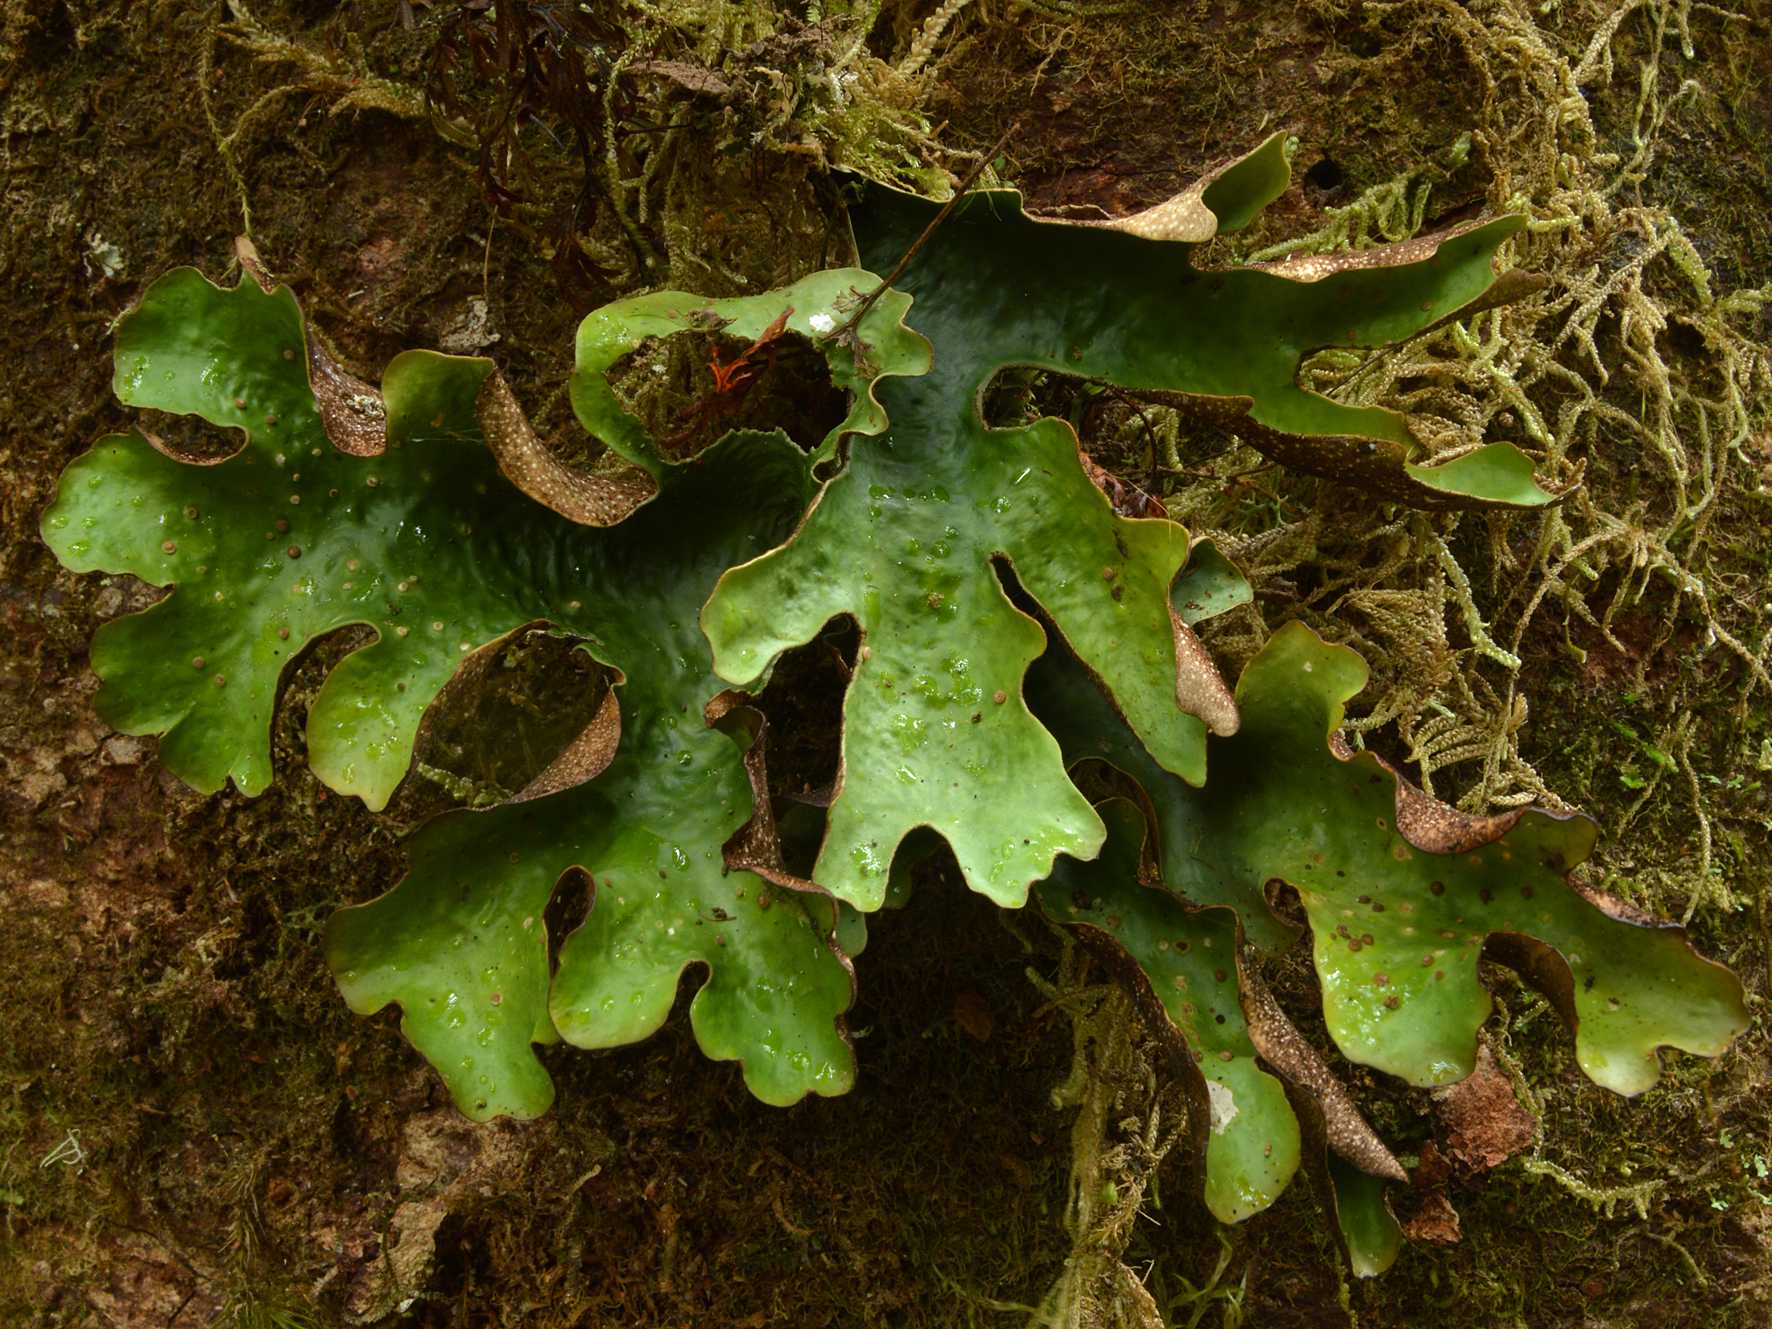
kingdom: Fungi
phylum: Ascomycota
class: Lecanoromycetes
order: Peltigerales
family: Lobariaceae
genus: Sticta
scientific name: Sticta
